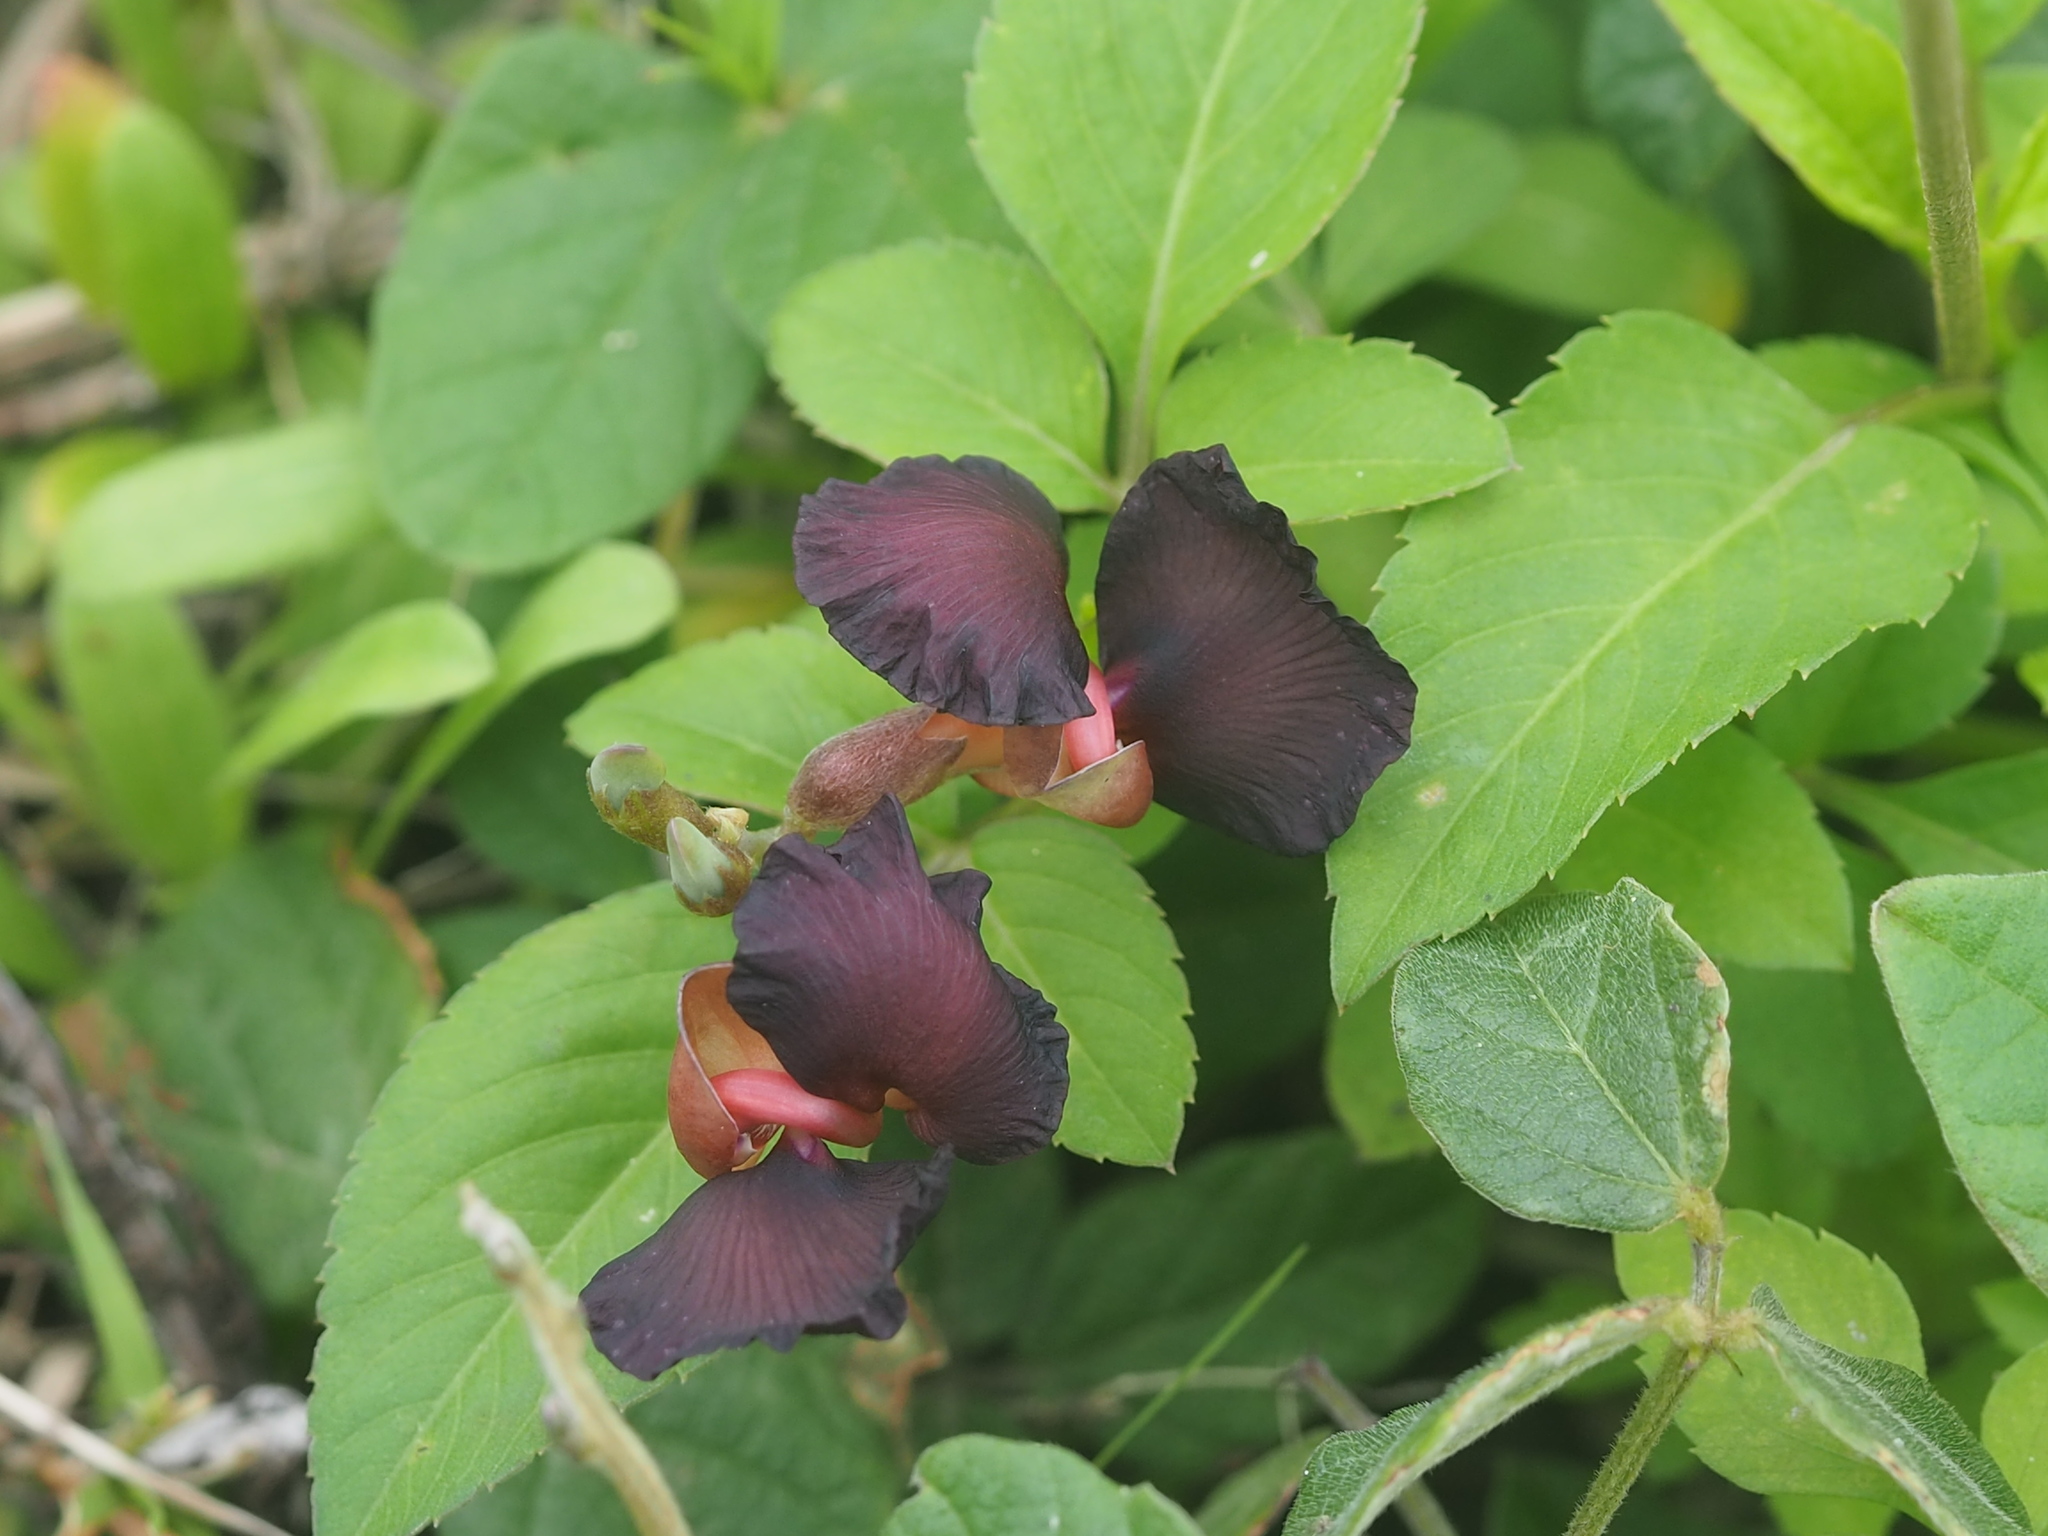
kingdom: Plantae
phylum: Tracheophyta
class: Magnoliopsida
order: Fabales
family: Fabaceae
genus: Macroptilium
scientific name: Macroptilium atropurpureum
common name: Purple bushbean
